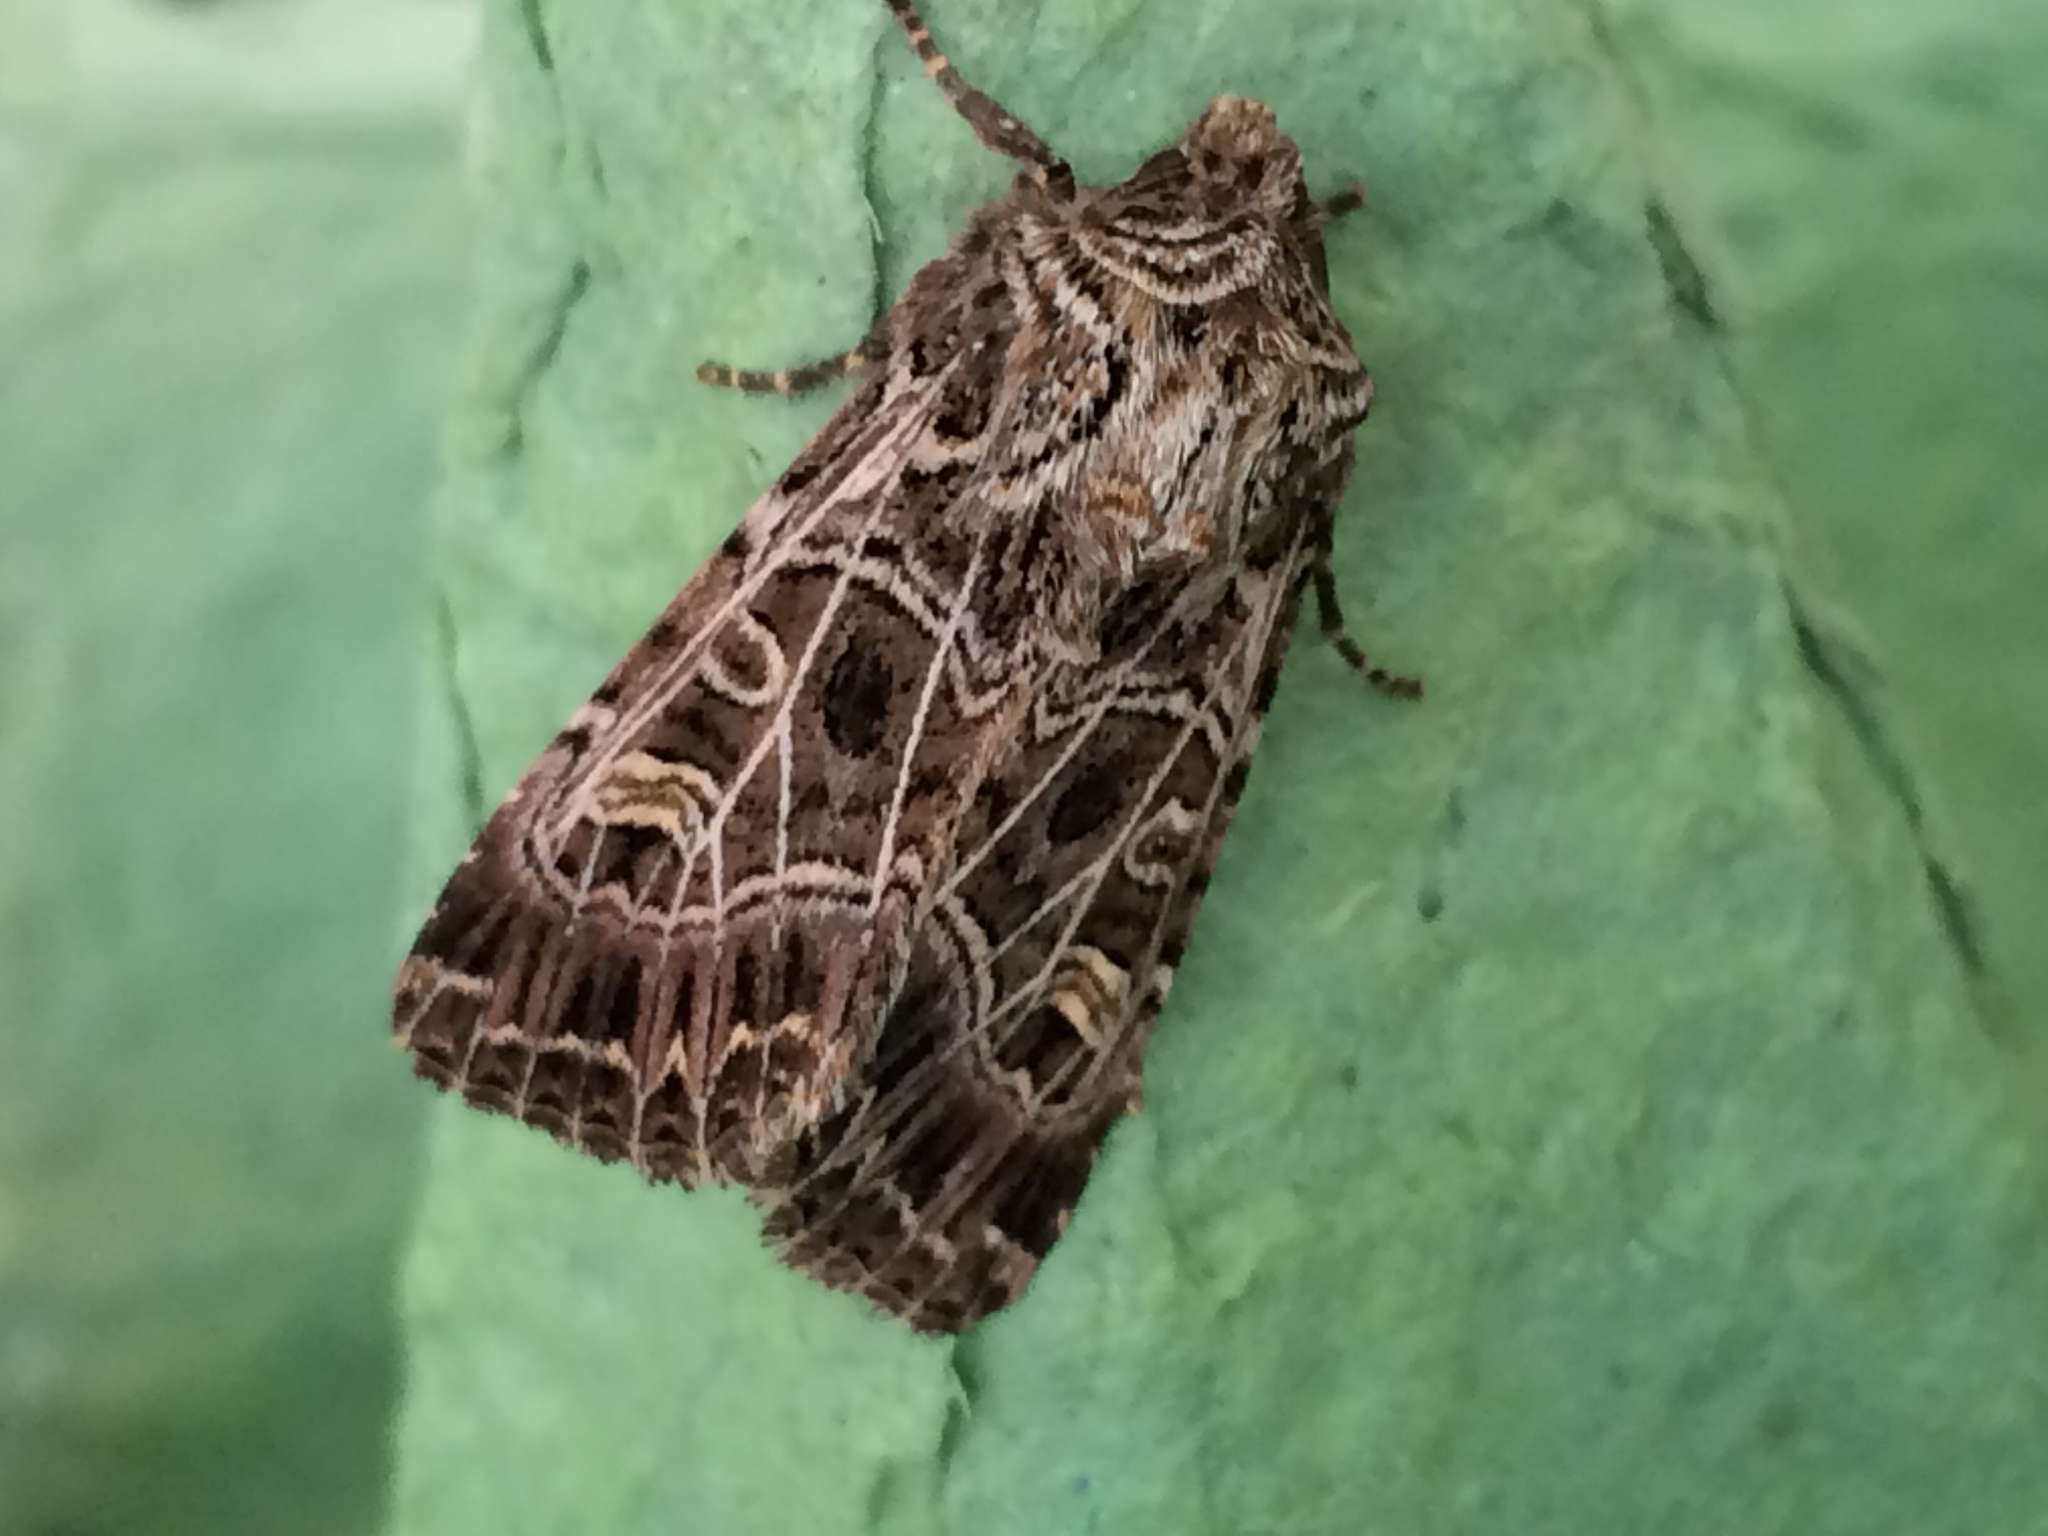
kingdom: Animalia
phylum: Arthropoda
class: Insecta
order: Lepidoptera
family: Noctuidae
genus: Sideridis
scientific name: Sideridis reticulata
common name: Bordered gothic
